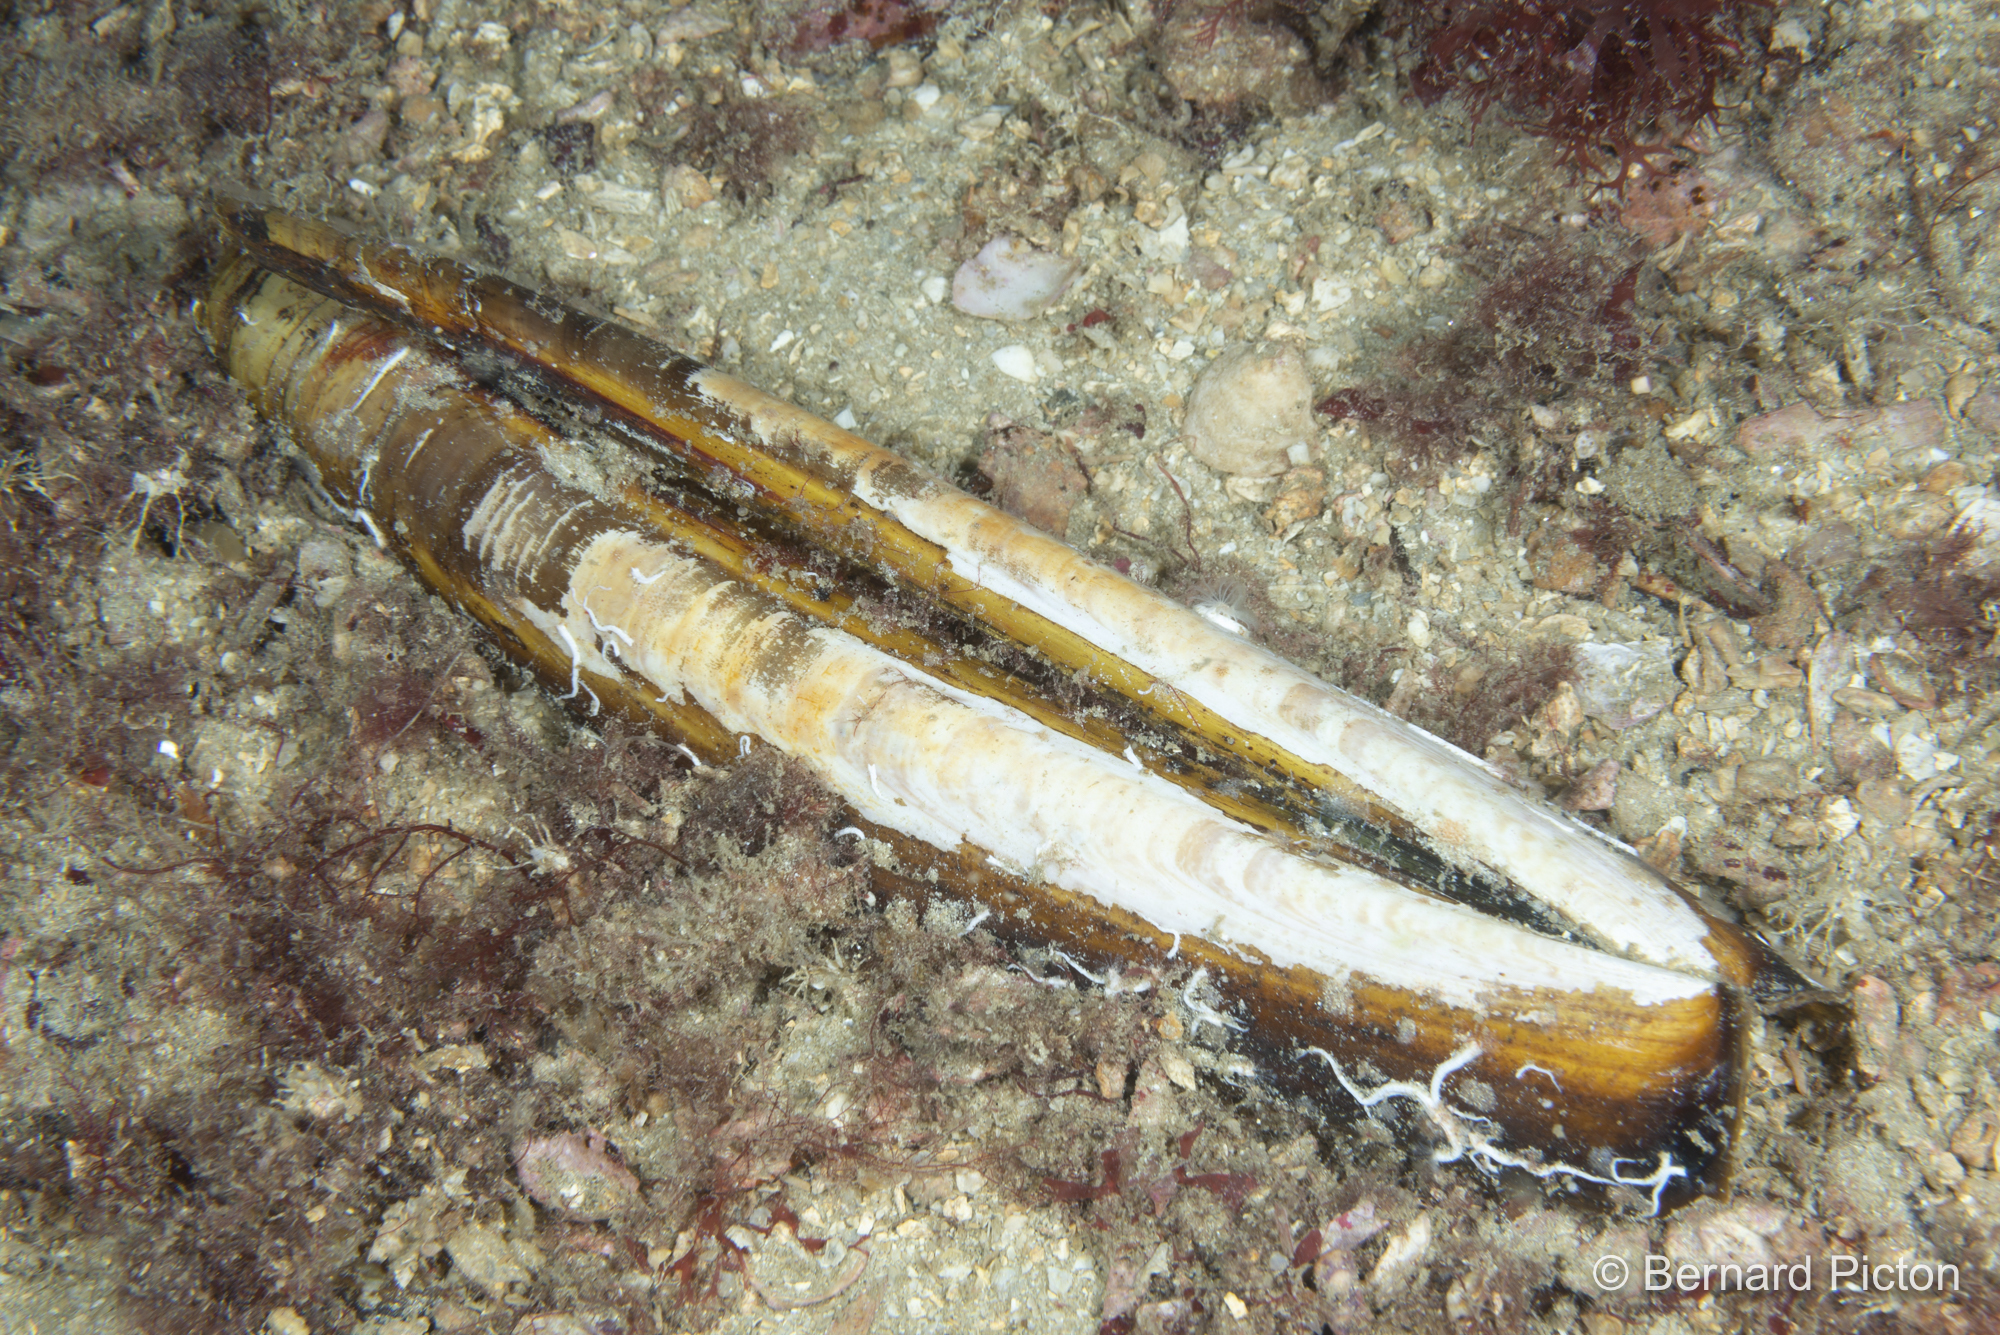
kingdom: Animalia
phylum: Mollusca
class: Bivalvia
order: Adapedonta
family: Pharidae
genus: Ensis
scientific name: Ensis magnus
